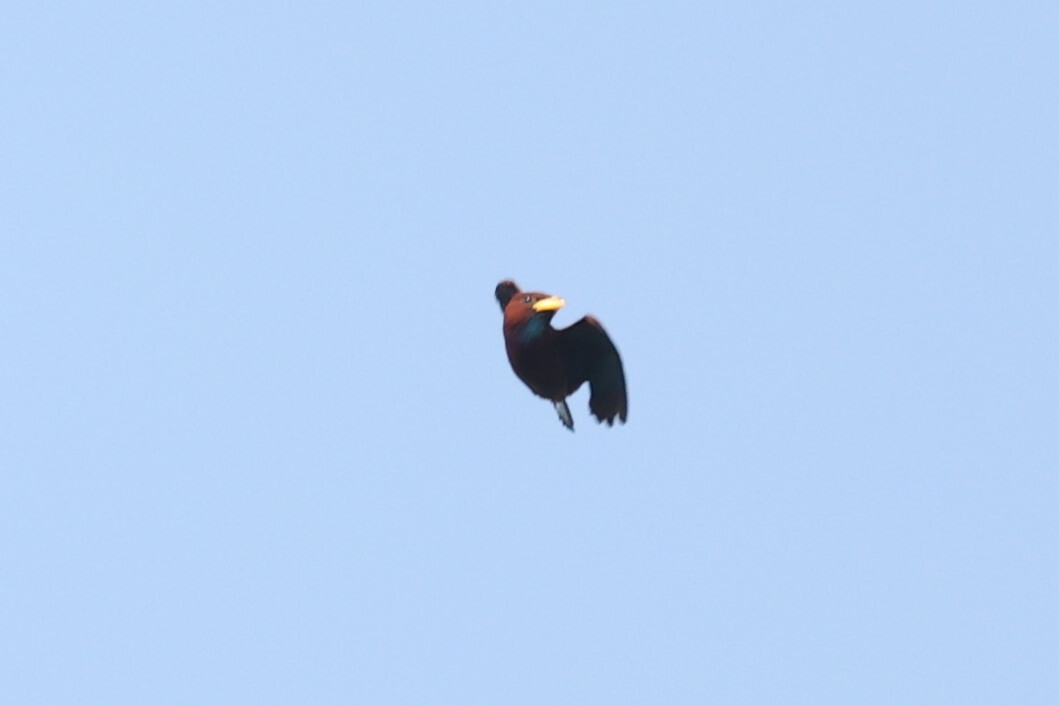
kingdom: Animalia
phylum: Chordata
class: Aves
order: Coraciiformes
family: Coraciidae
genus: Eurystomus
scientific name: Eurystomus gularis
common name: Blue-throated roller
